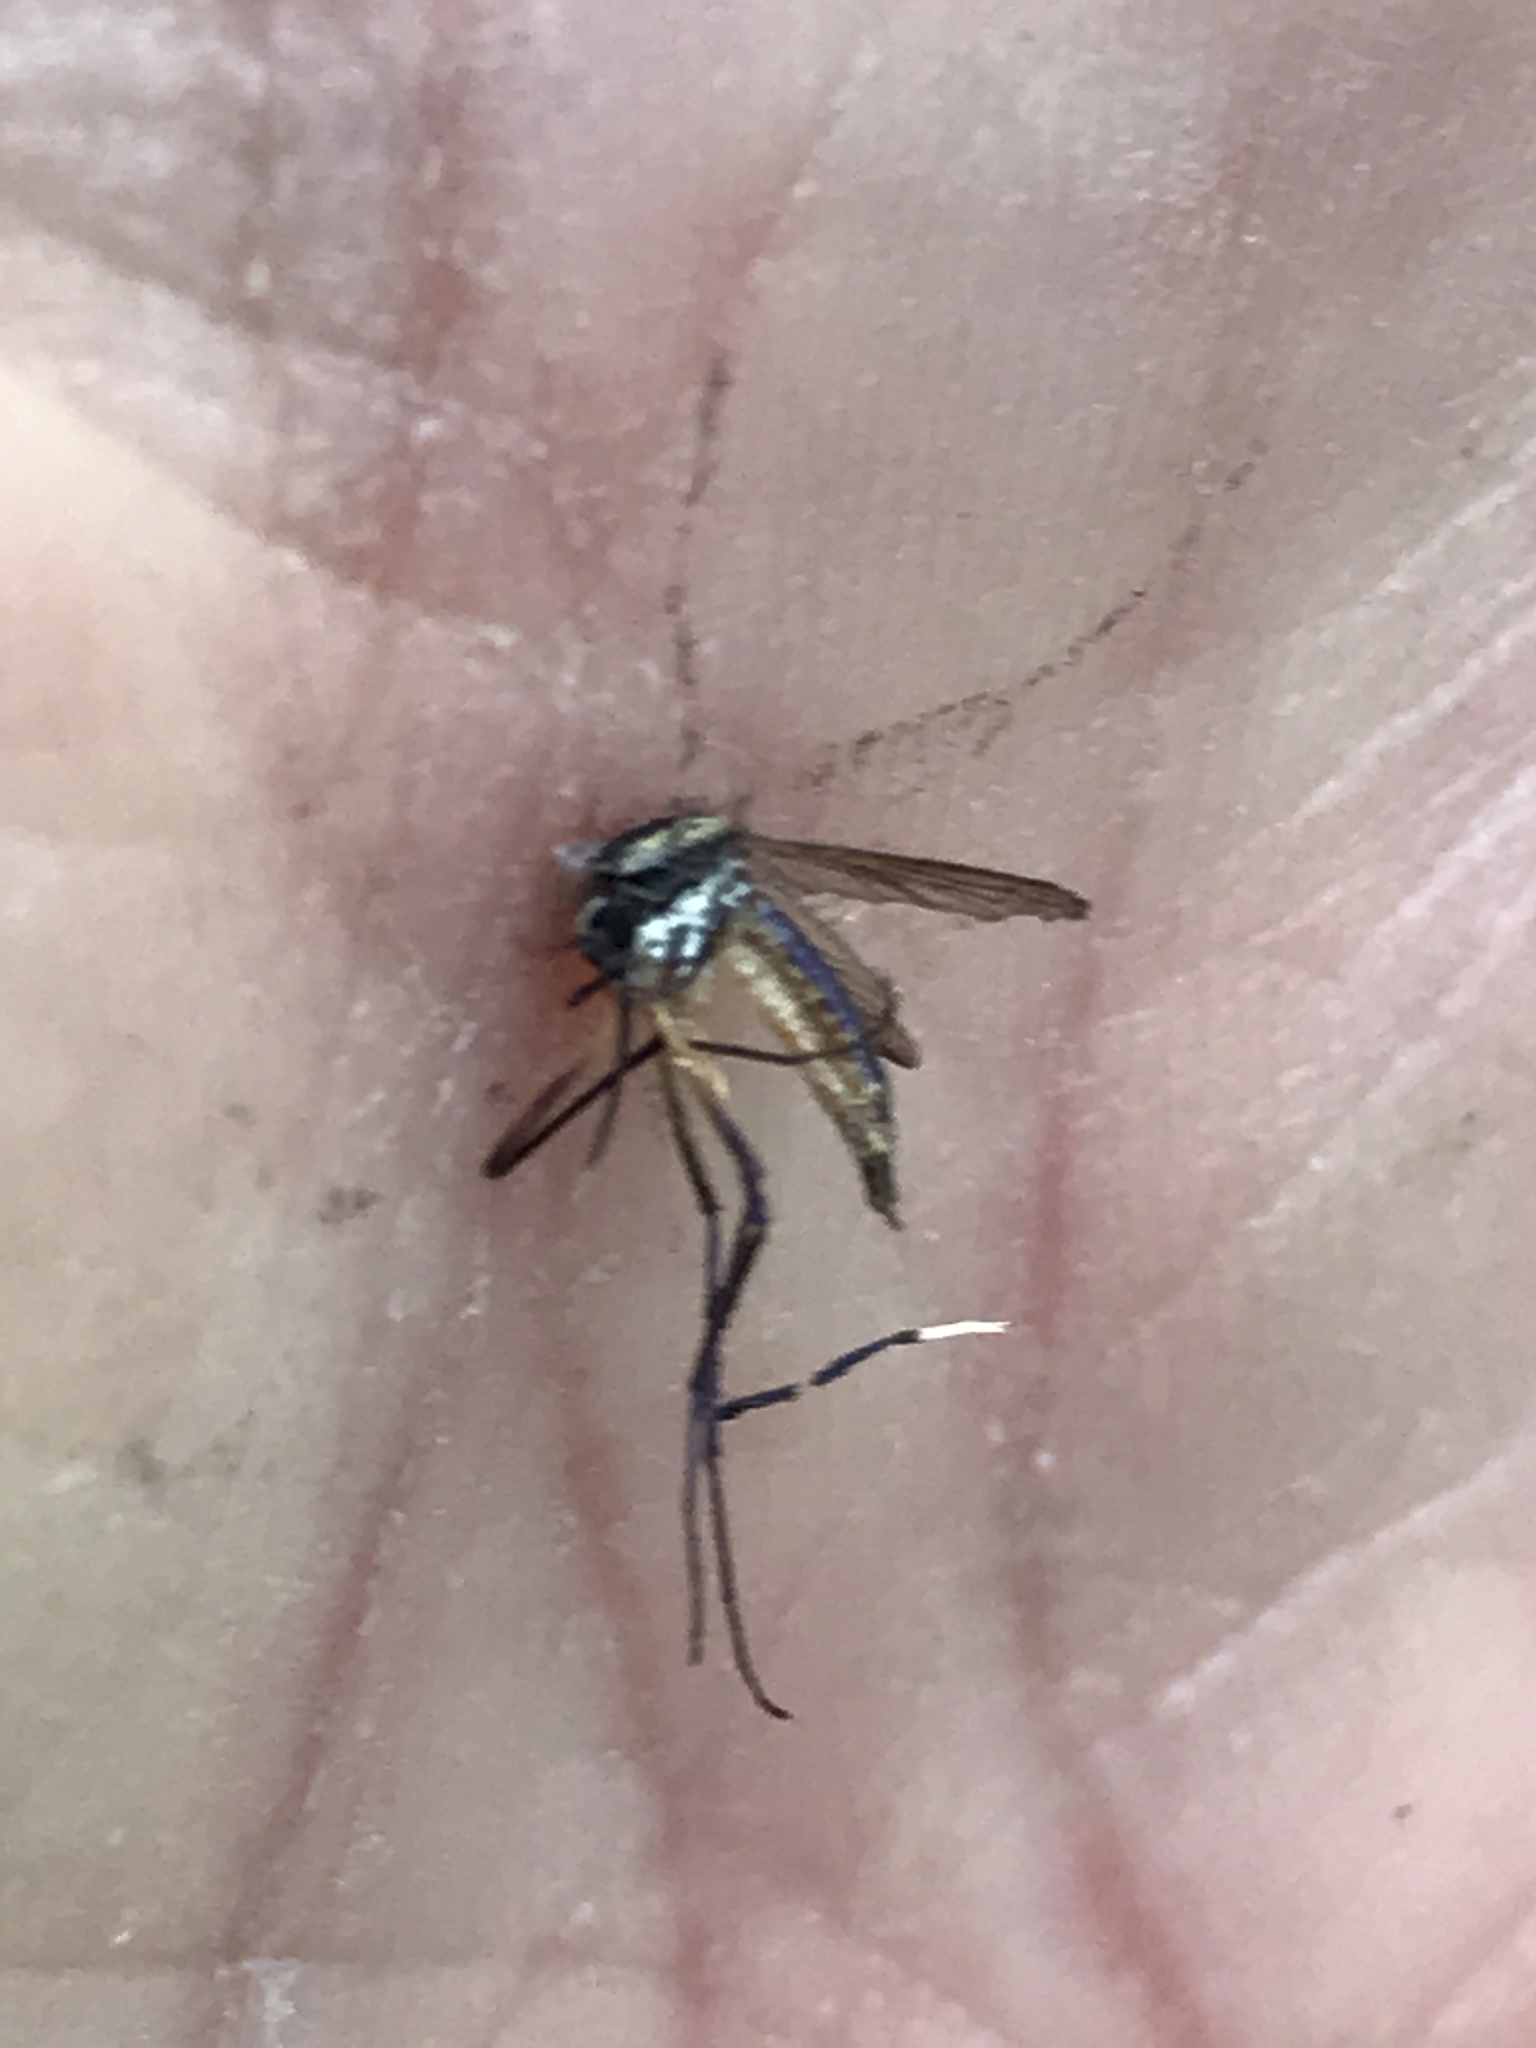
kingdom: Animalia
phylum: Arthropoda
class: Insecta
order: Diptera
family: Culicidae
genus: Psorophora
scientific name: Psorophora longipalpus
